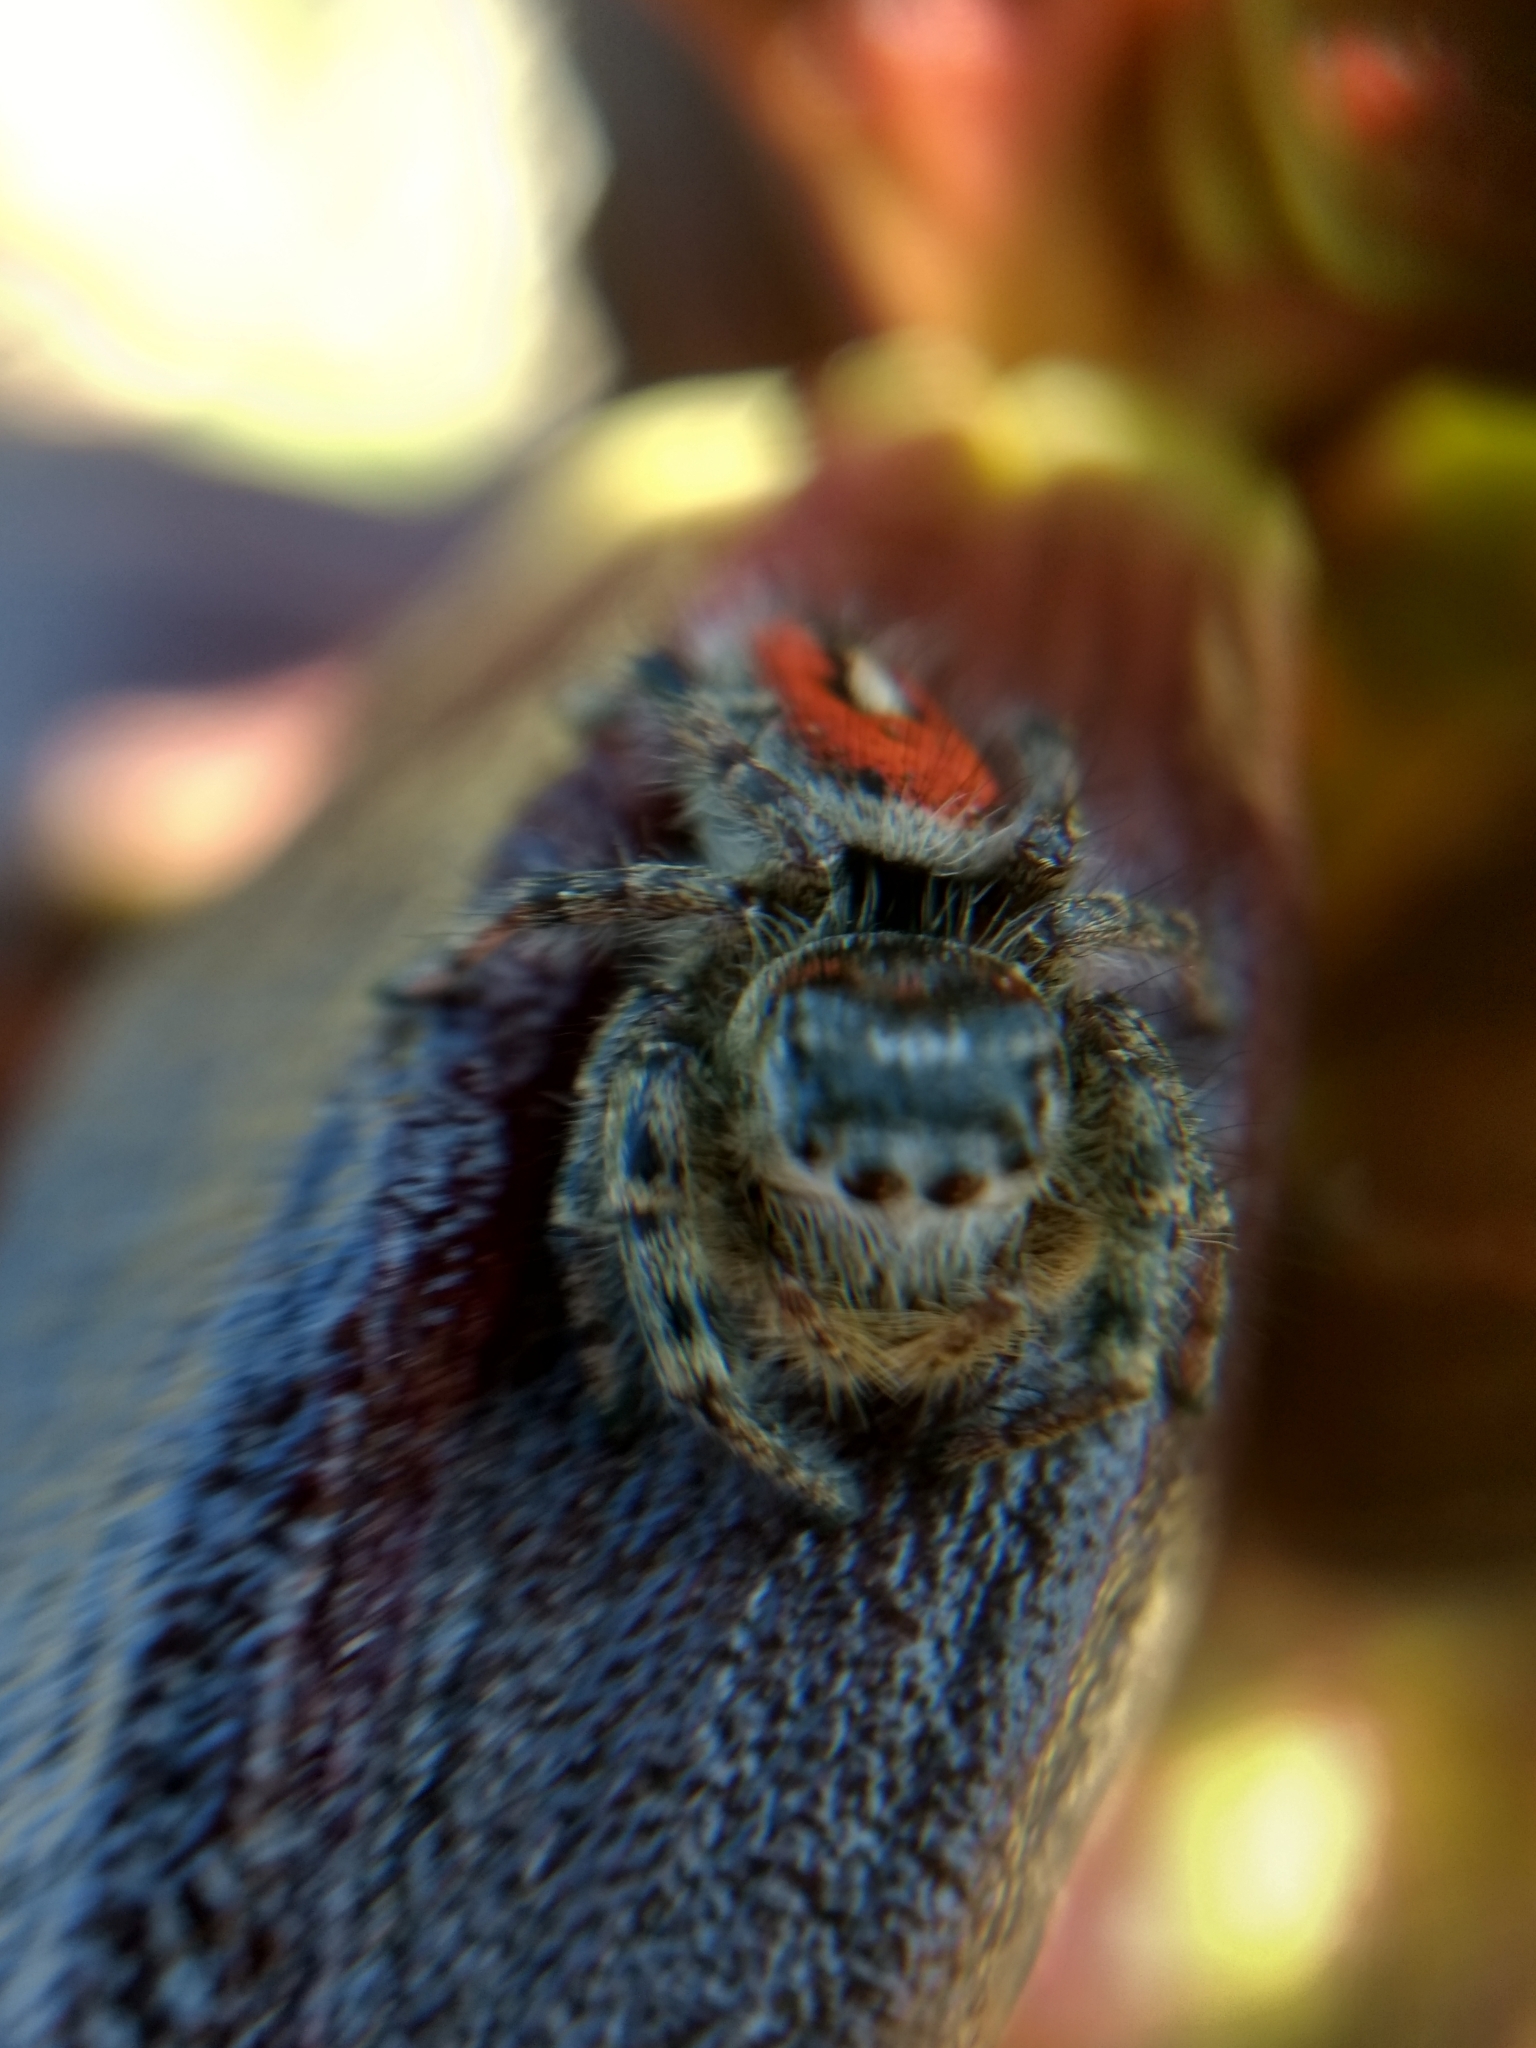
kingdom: Animalia
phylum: Arthropoda
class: Arachnida
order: Araneae
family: Salticidae
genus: Phidippus
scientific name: Phidippus phoenix
